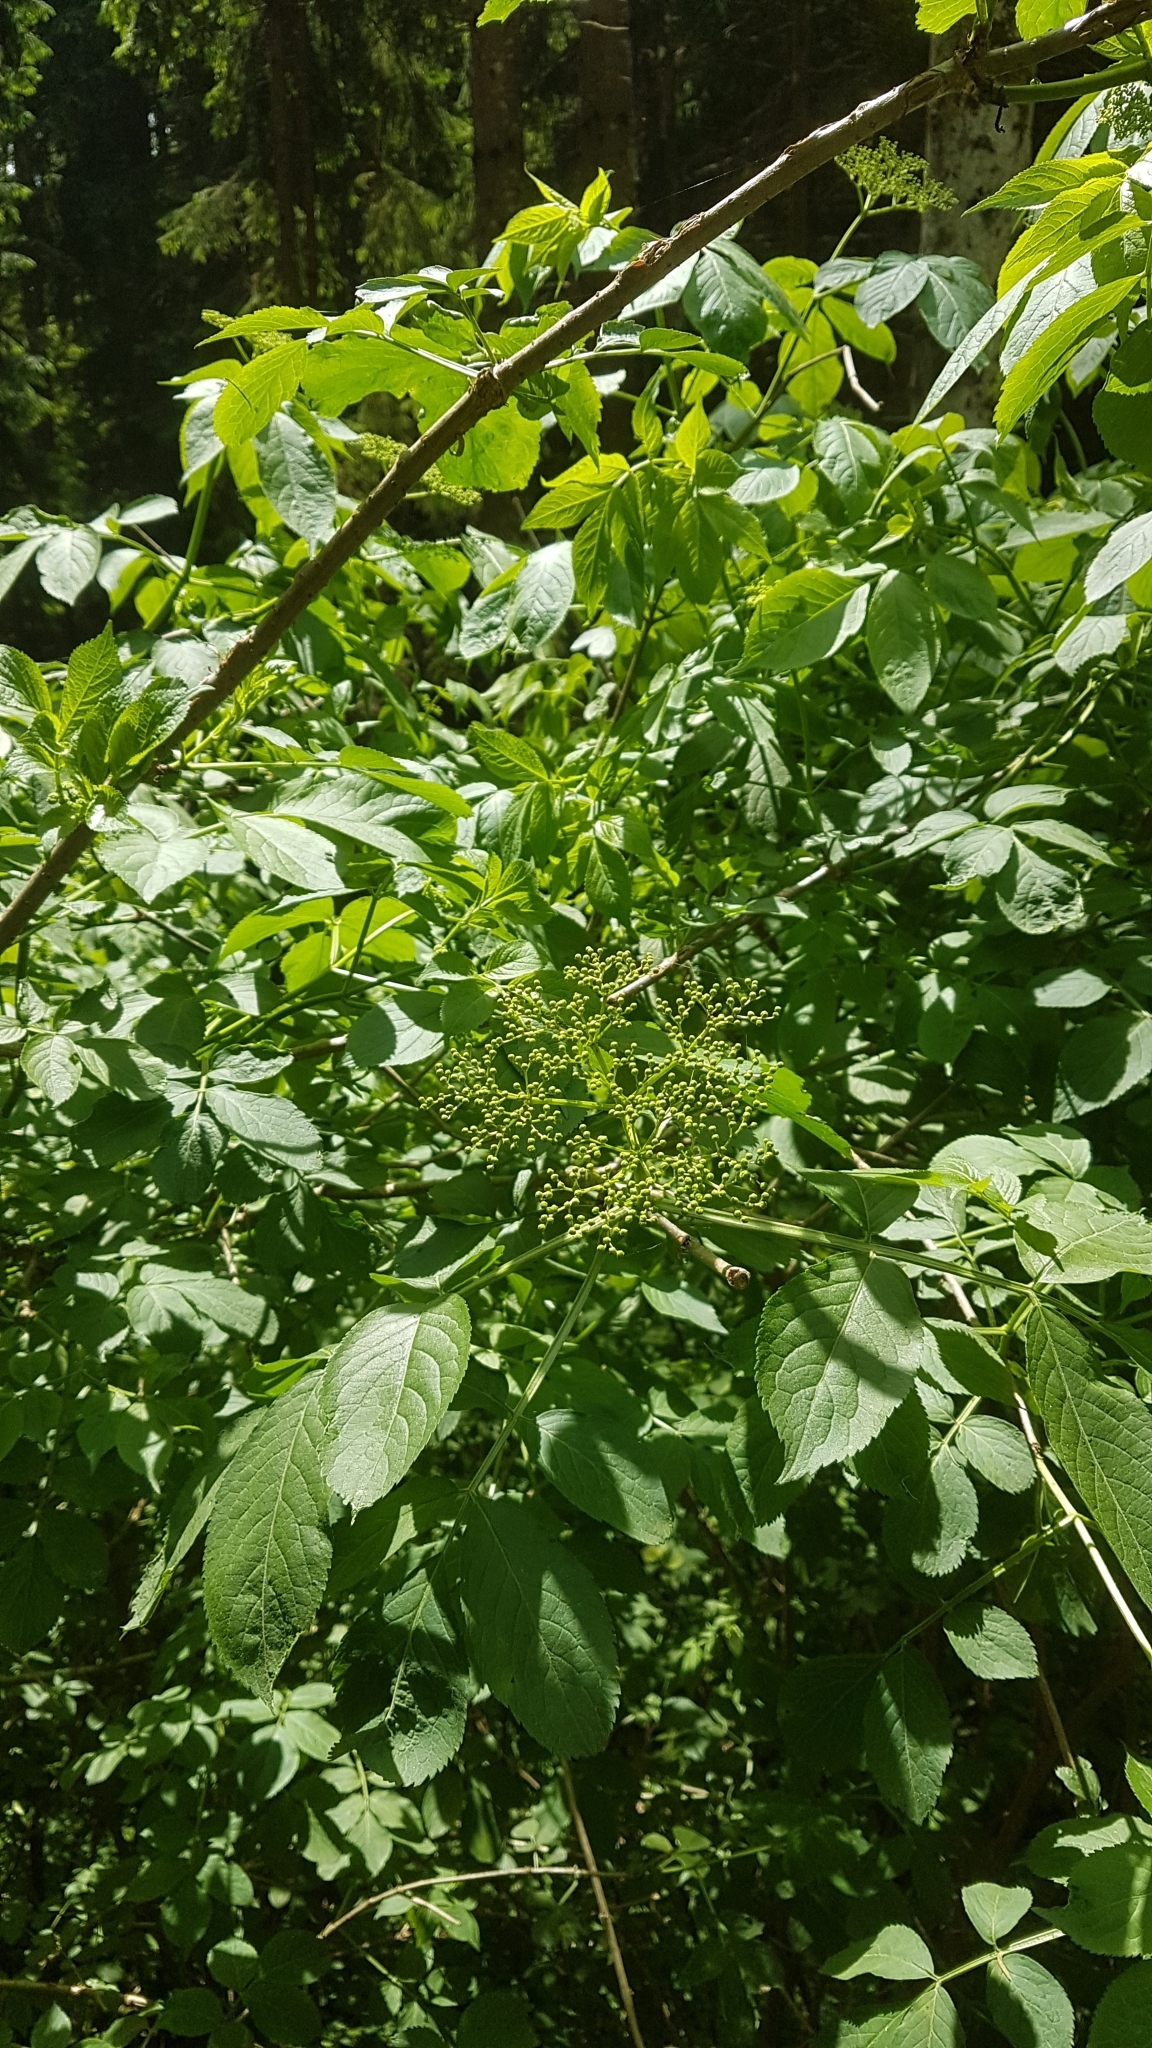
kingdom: Plantae
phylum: Tracheophyta
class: Magnoliopsida
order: Dipsacales
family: Viburnaceae
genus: Sambucus
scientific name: Sambucus nigra
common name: Elder
